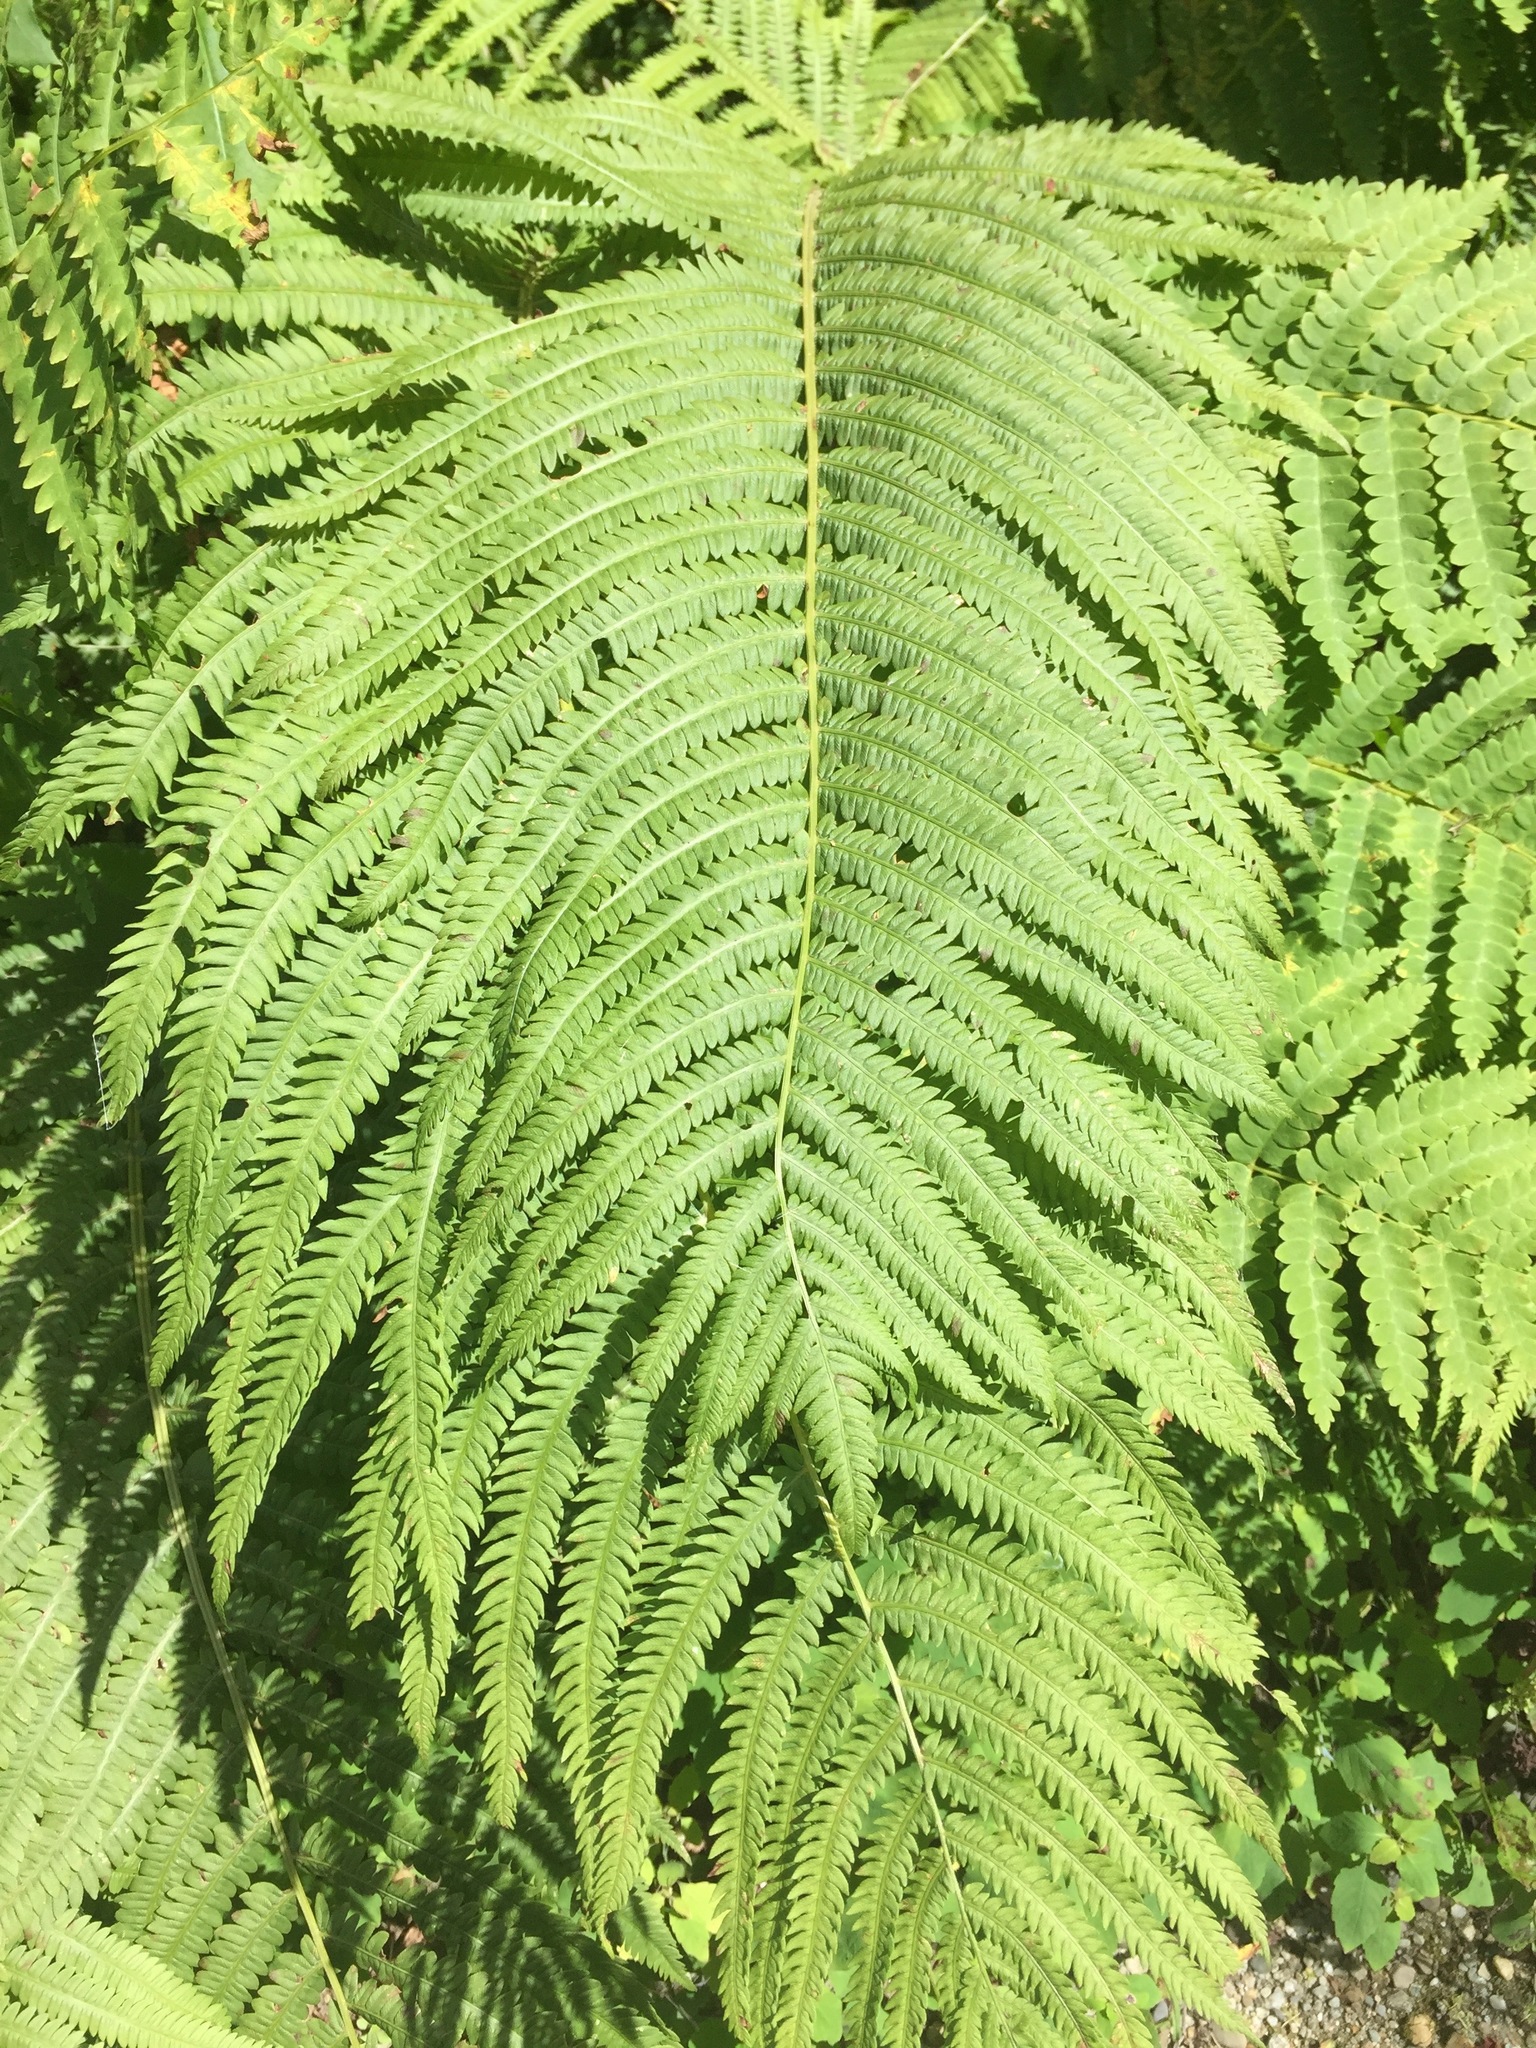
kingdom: Plantae
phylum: Tracheophyta
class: Polypodiopsida
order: Polypodiales
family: Onocleaceae
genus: Matteuccia
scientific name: Matteuccia struthiopteris
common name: Ostrich fern
